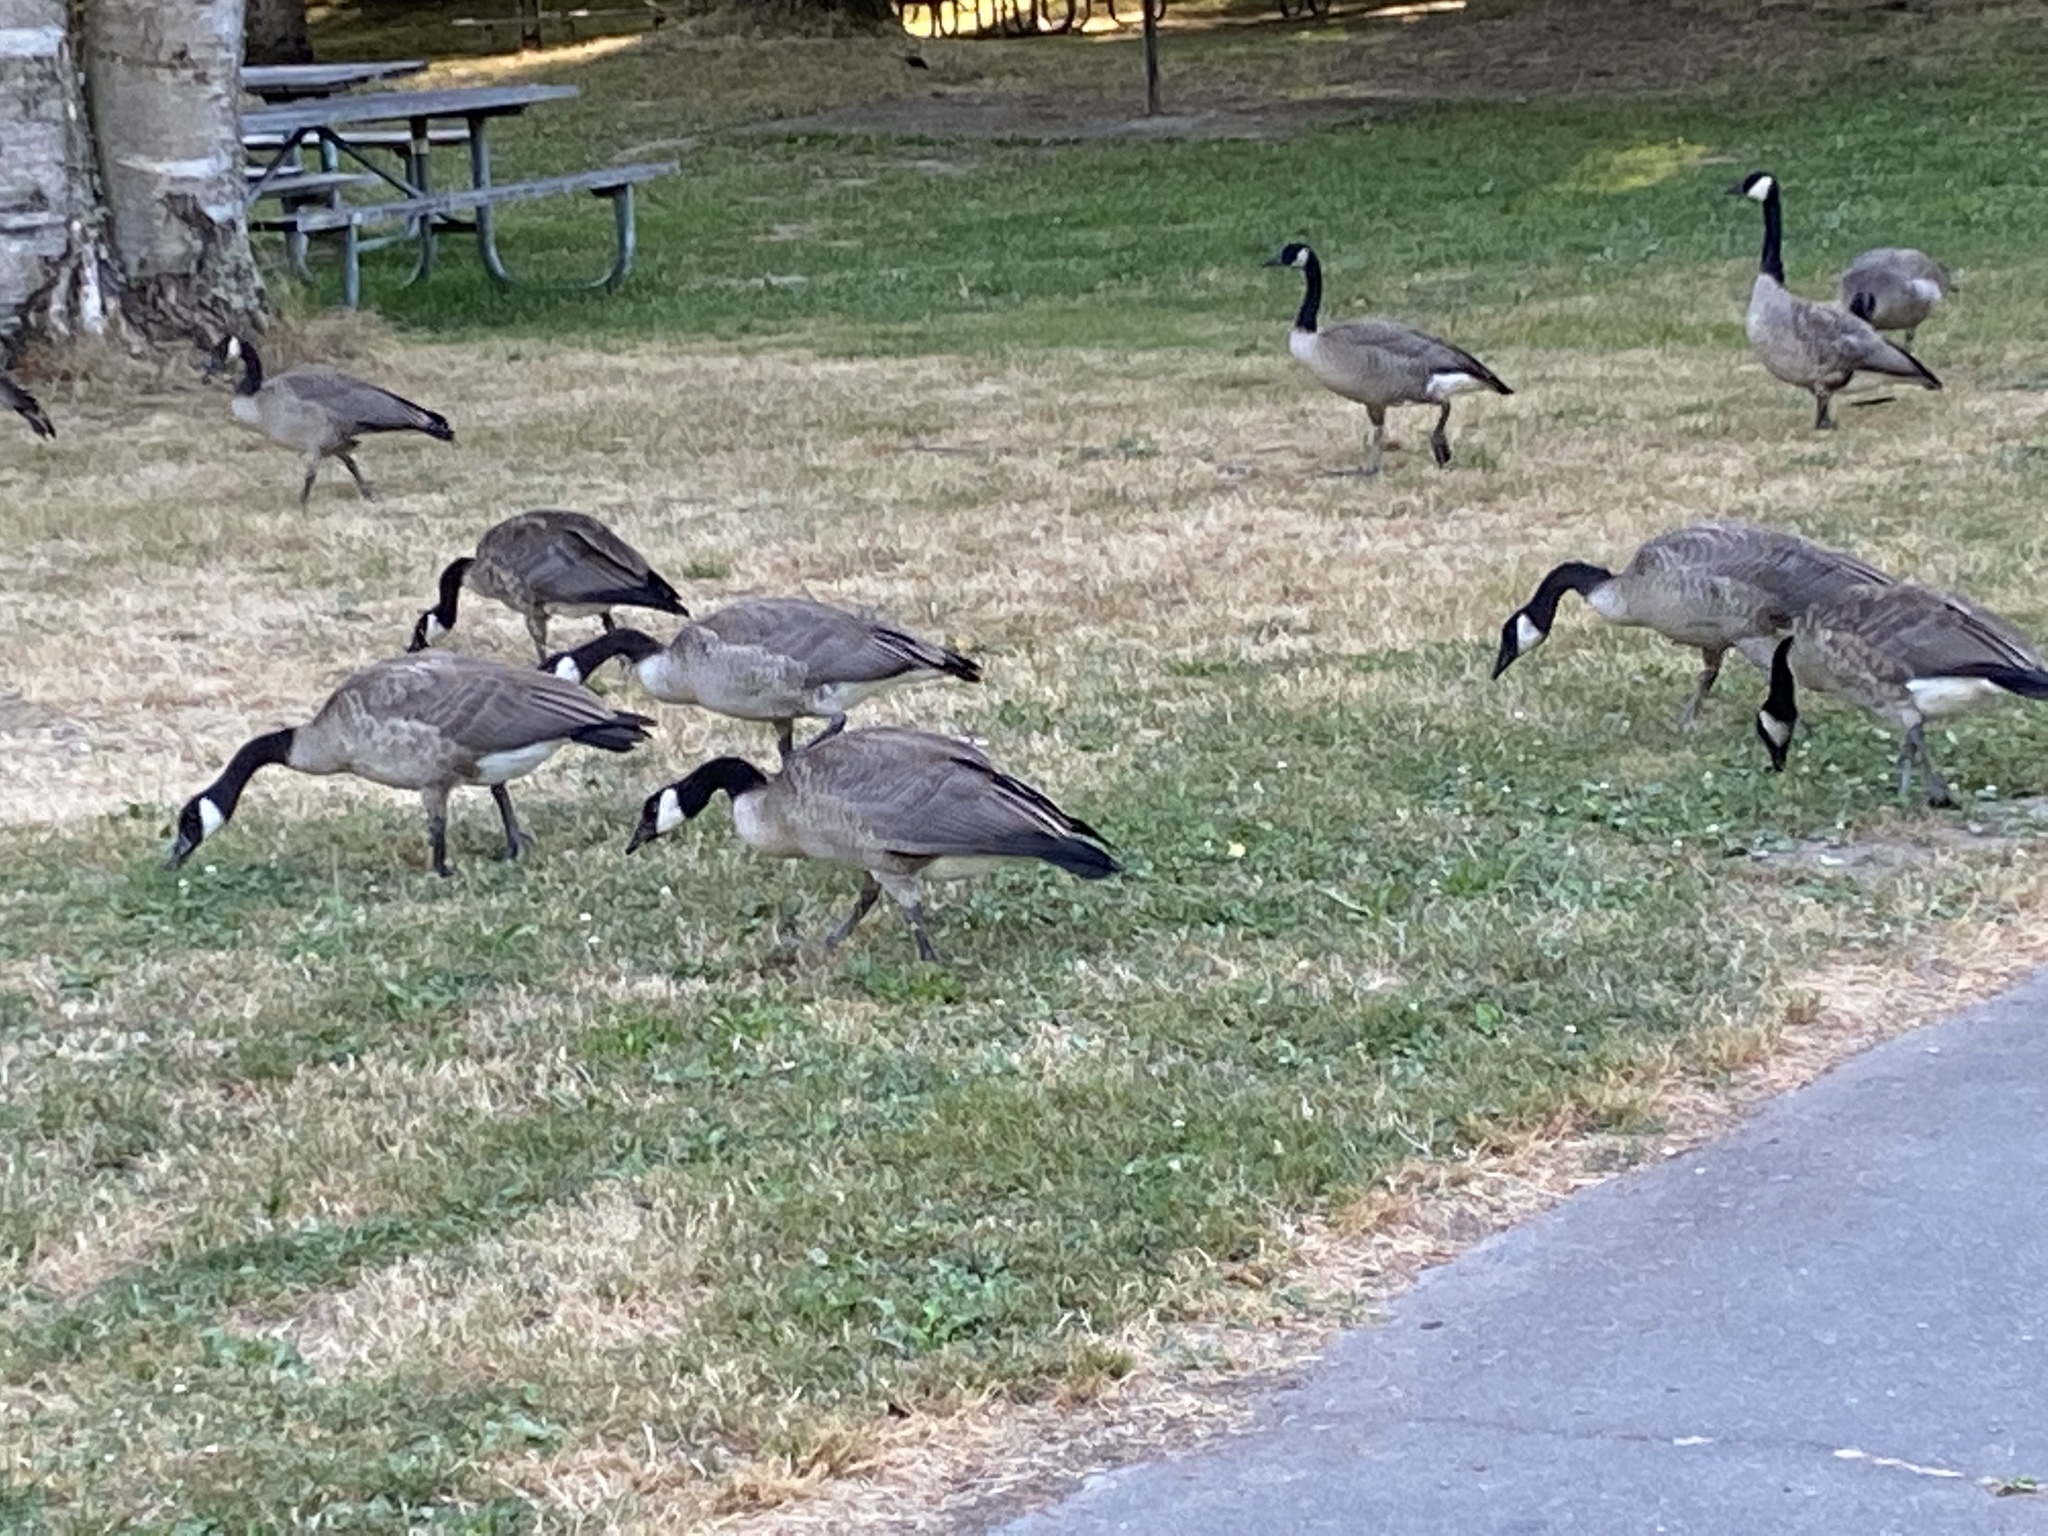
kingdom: Animalia
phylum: Chordata
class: Aves
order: Anseriformes
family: Anatidae
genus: Branta
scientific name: Branta canadensis
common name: Canada goose
